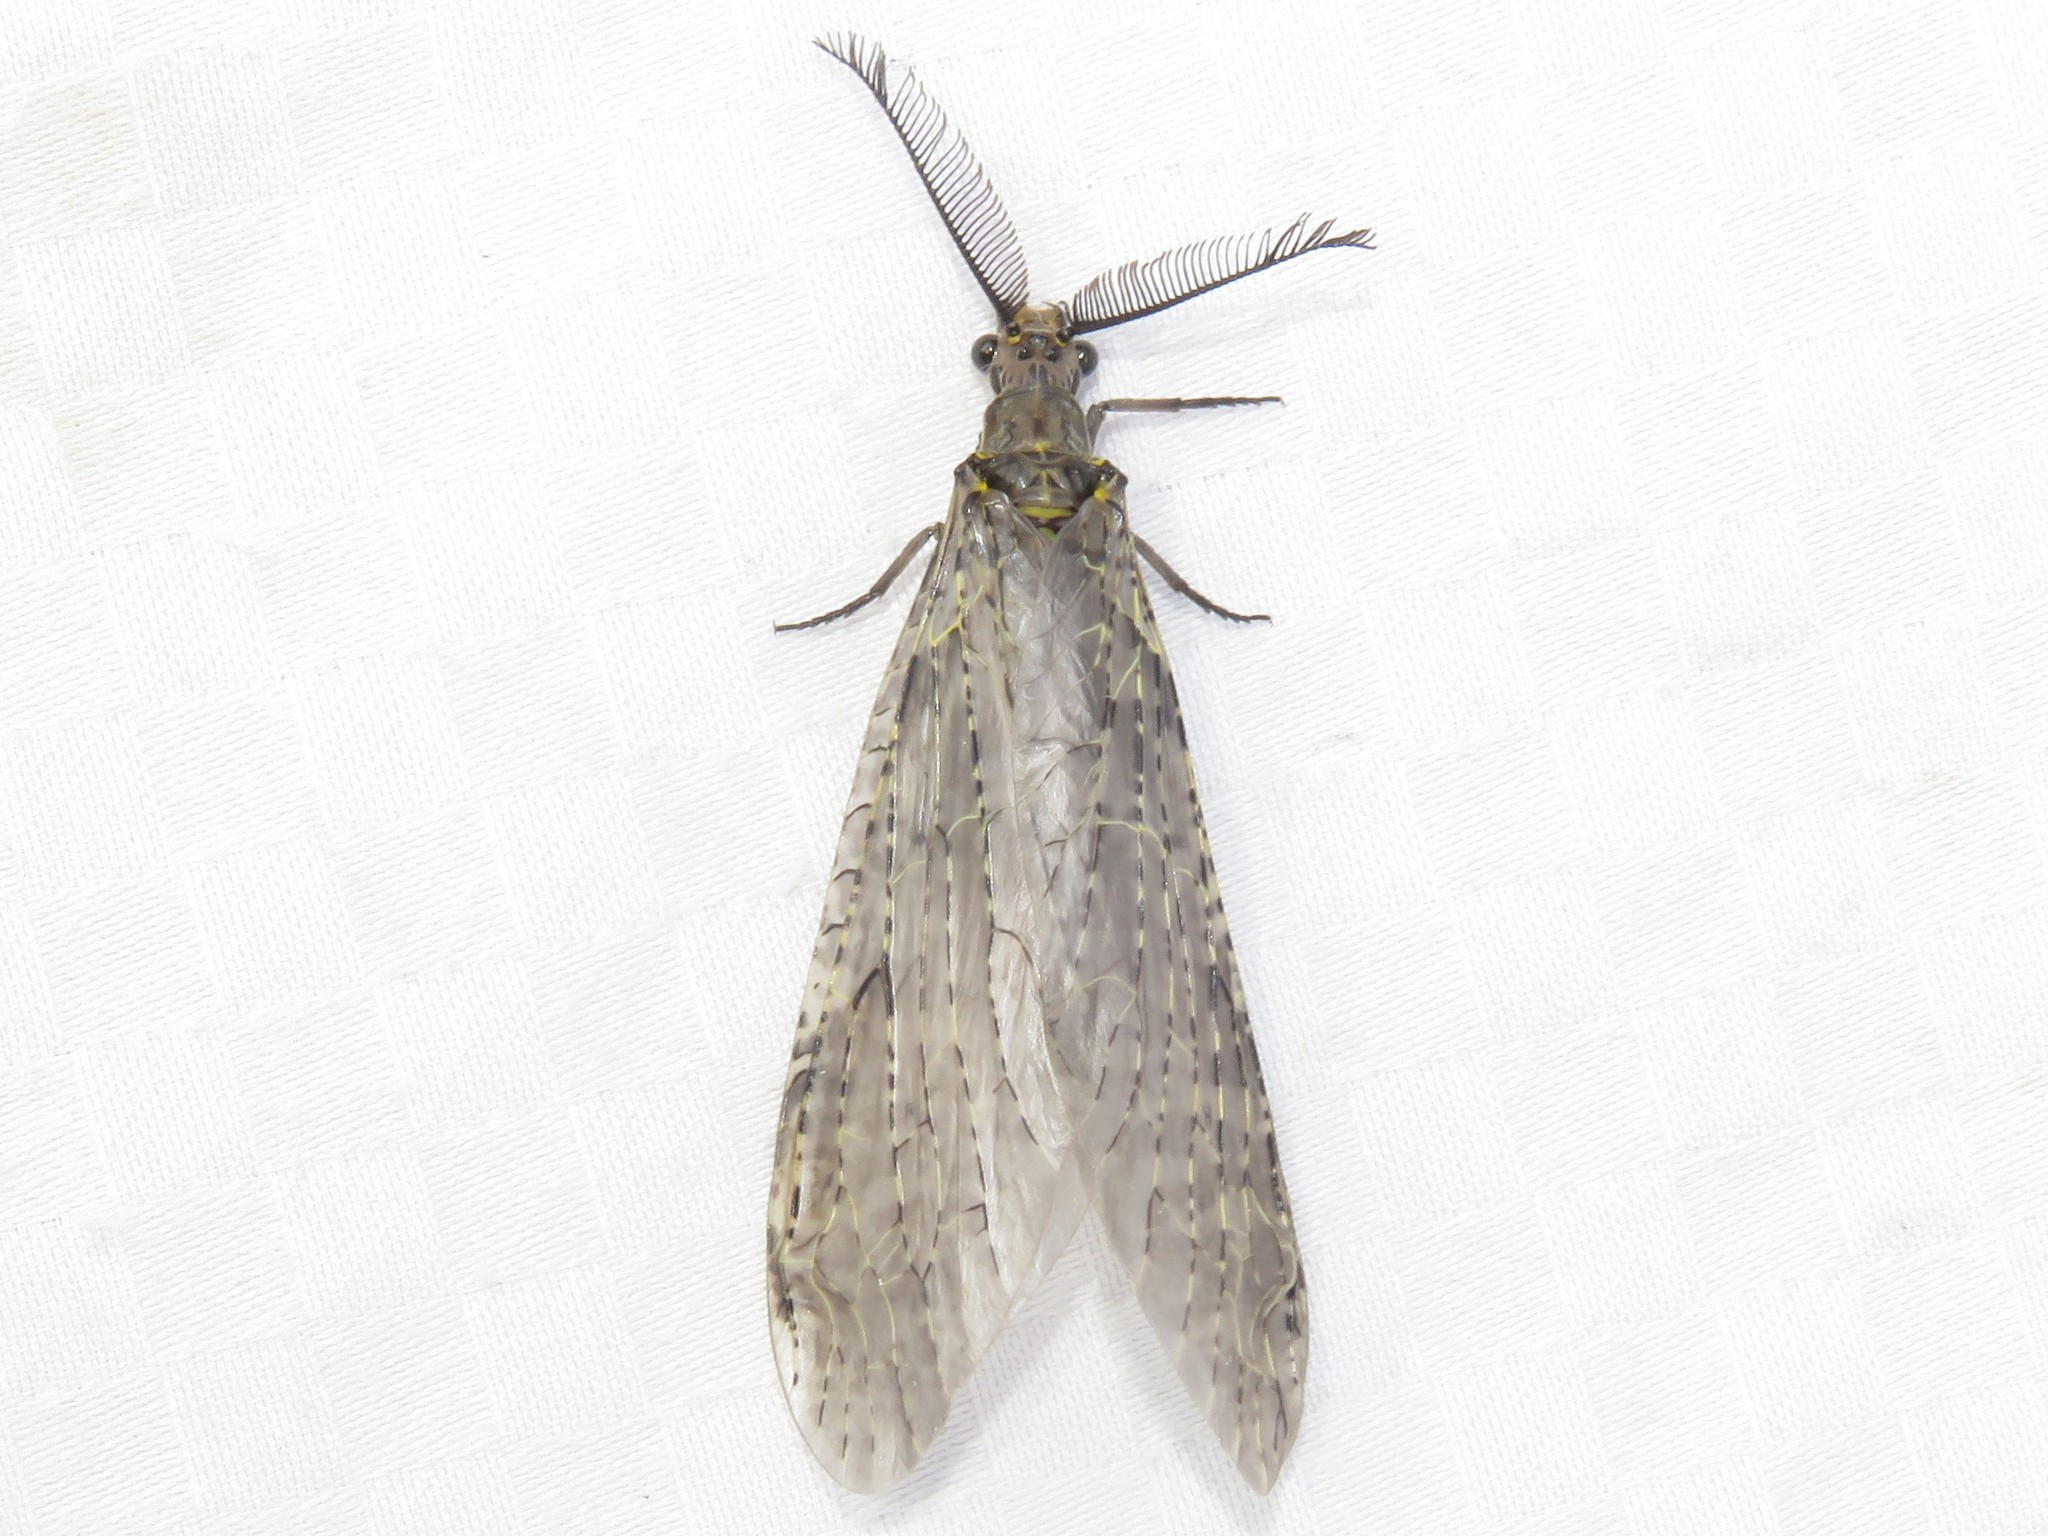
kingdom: Animalia
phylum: Arthropoda
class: Insecta
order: Megaloptera
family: Corydalidae
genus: Chauliodes
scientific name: Chauliodes rastricornis
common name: Spring fishfly
